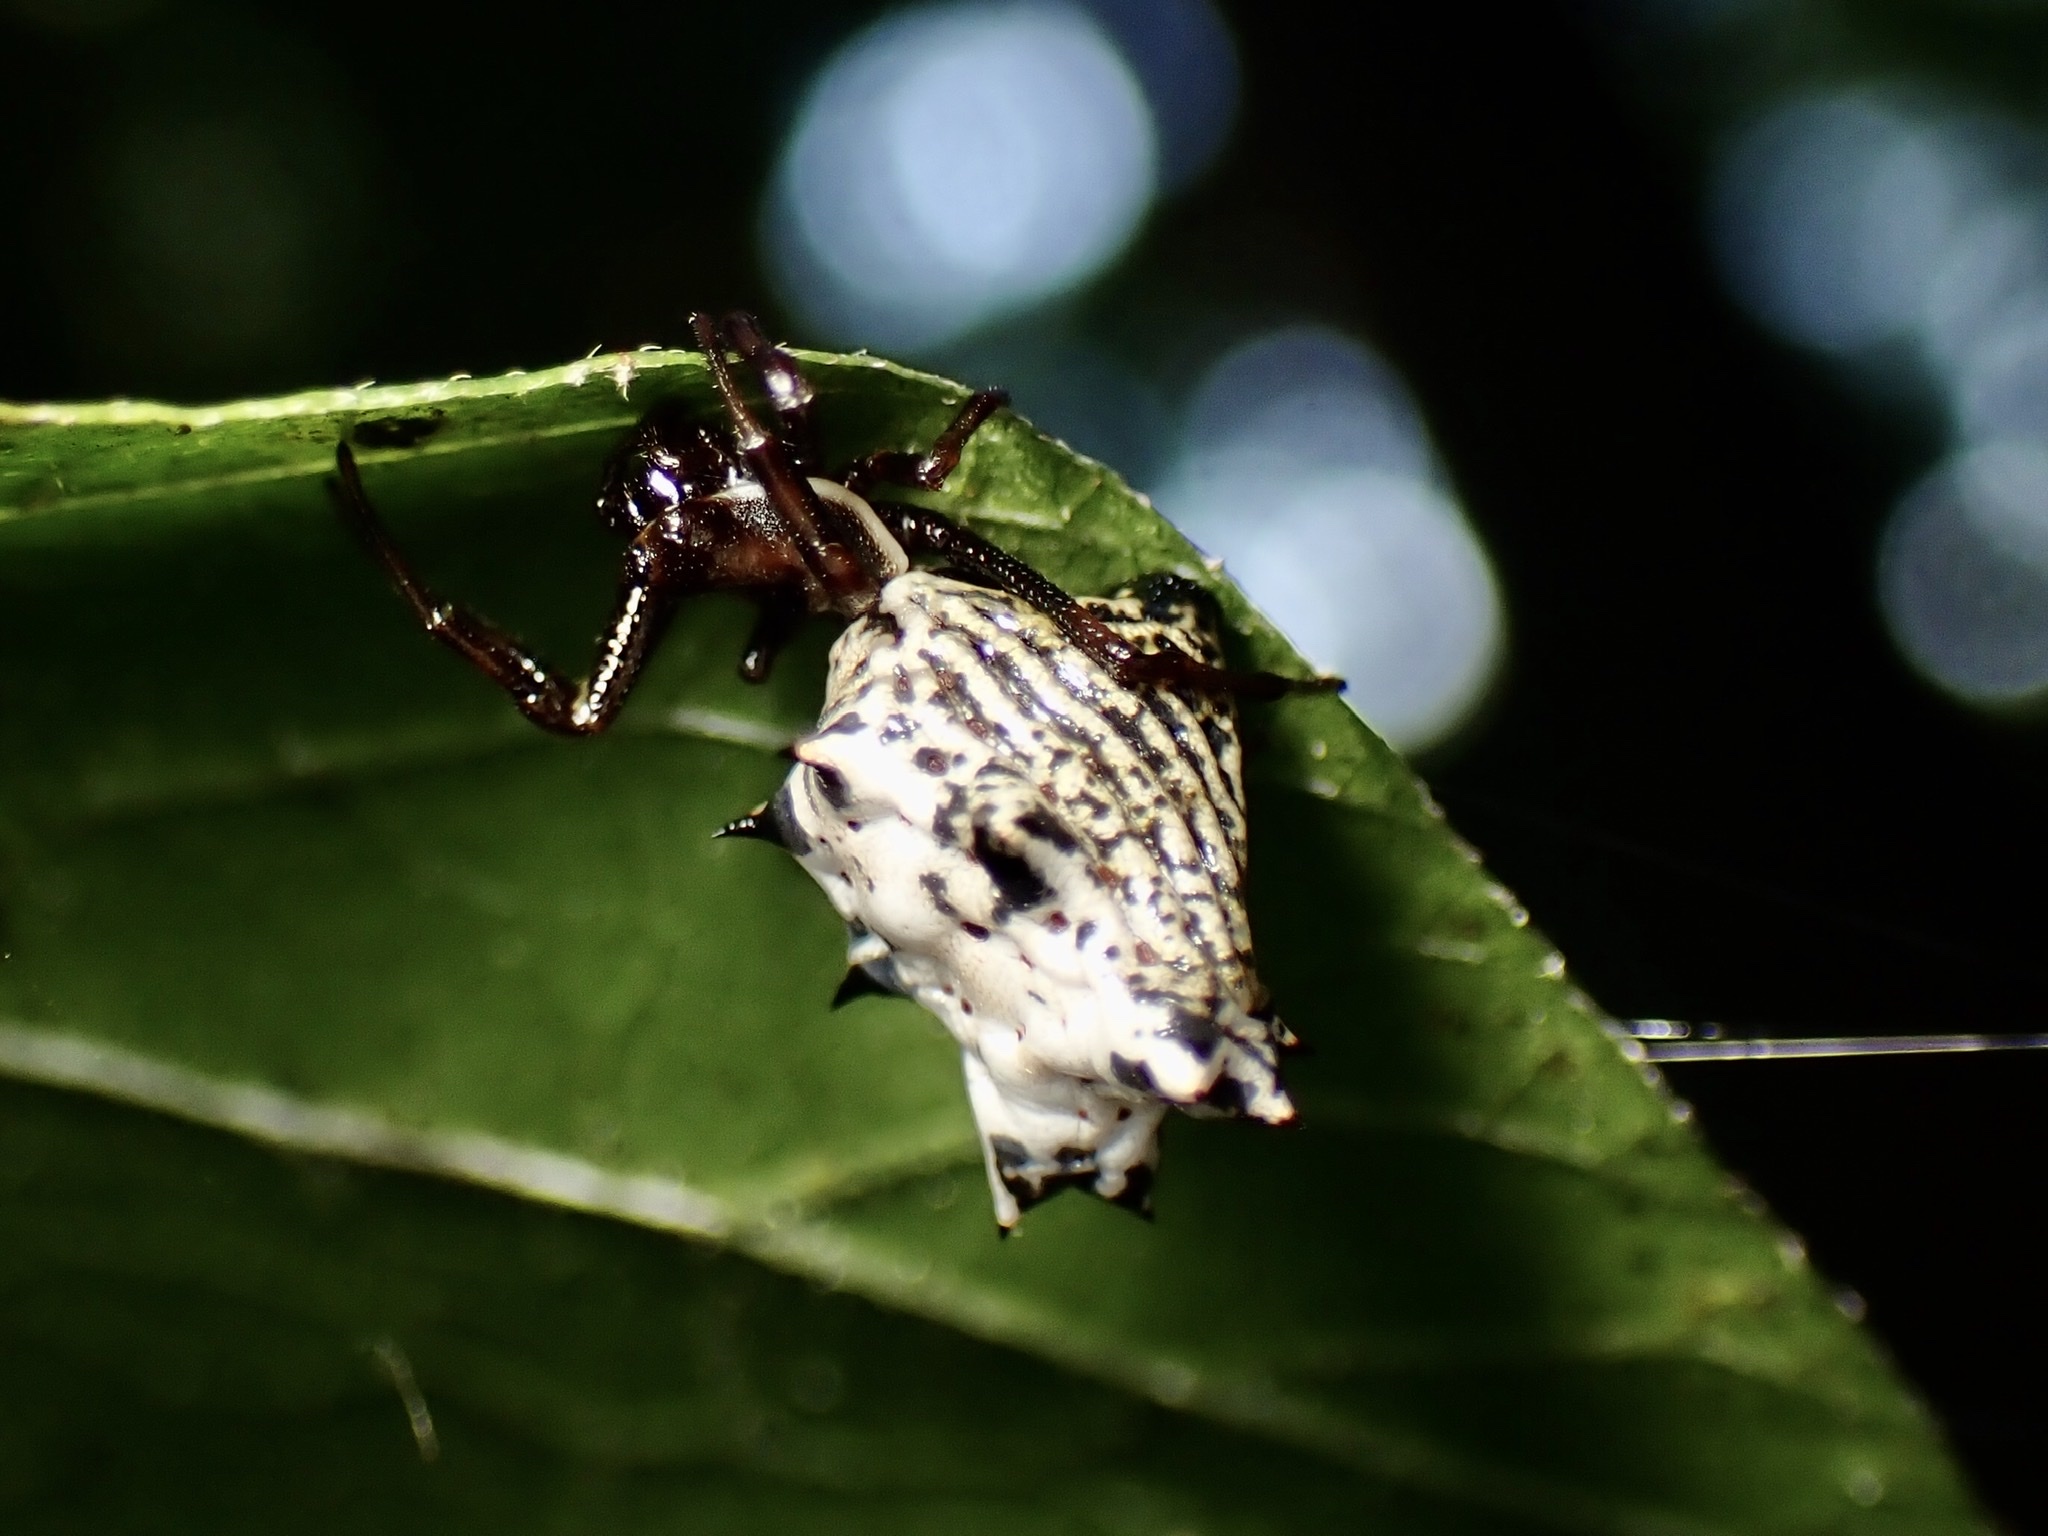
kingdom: Animalia
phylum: Arthropoda
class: Arachnida
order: Araneae
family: Araneidae
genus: Micrathena
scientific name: Micrathena gracilis
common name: Orb weavers
